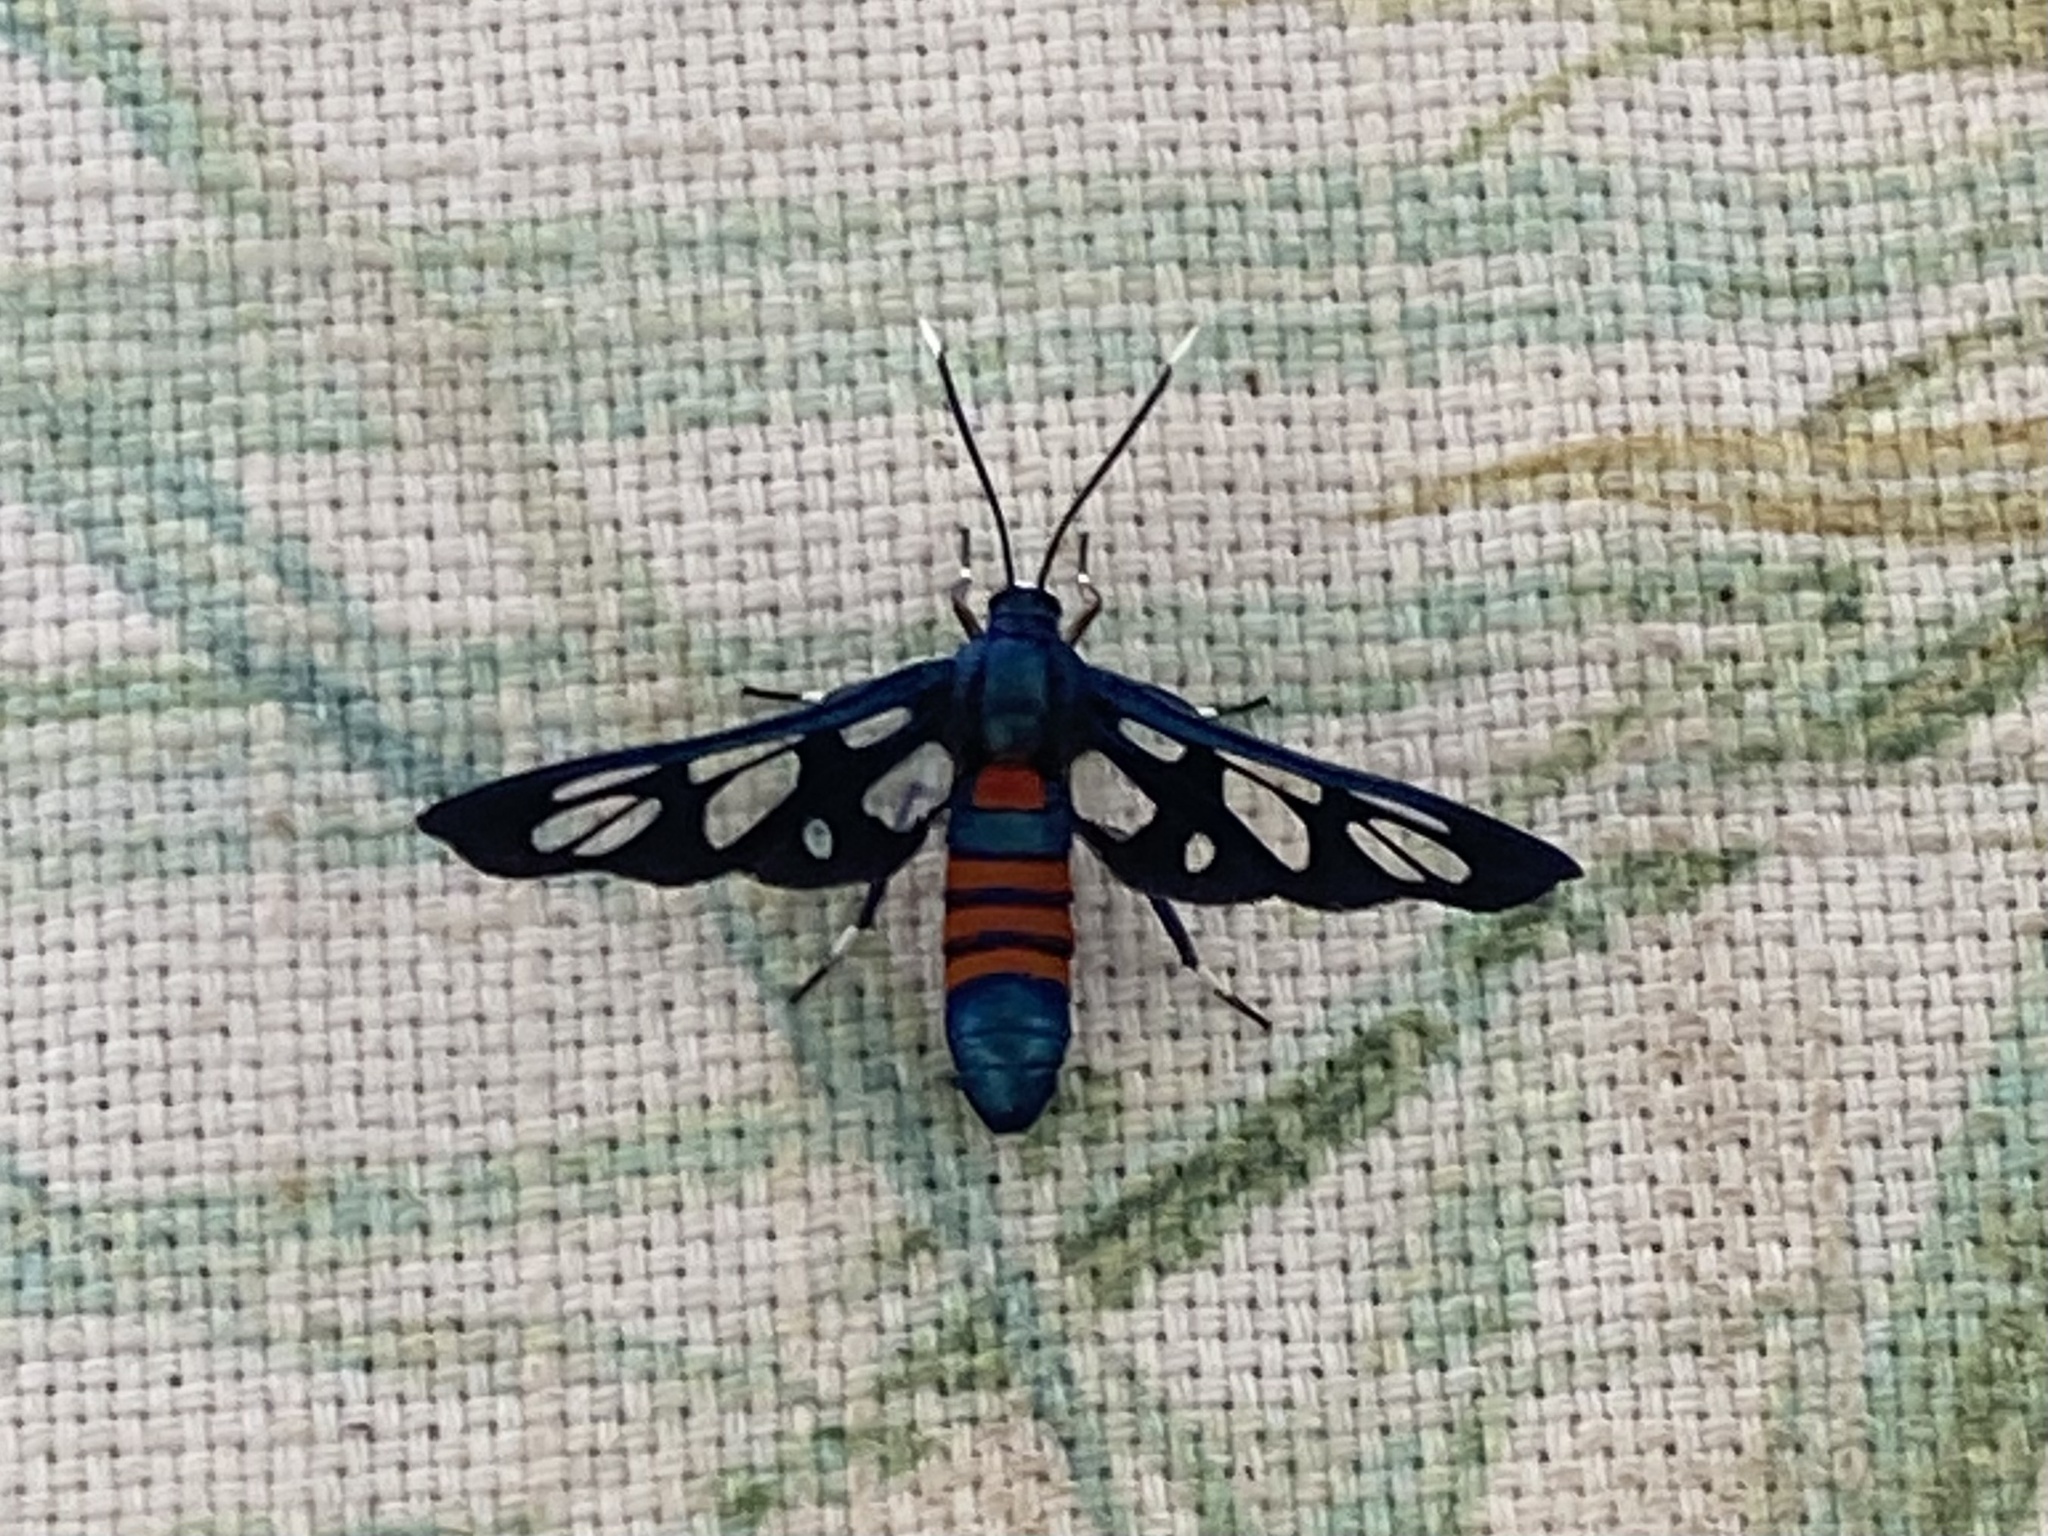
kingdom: Animalia
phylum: Arthropoda
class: Insecta
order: Lepidoptera
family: Erebidae
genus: Amata
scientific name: Amata cerbera
